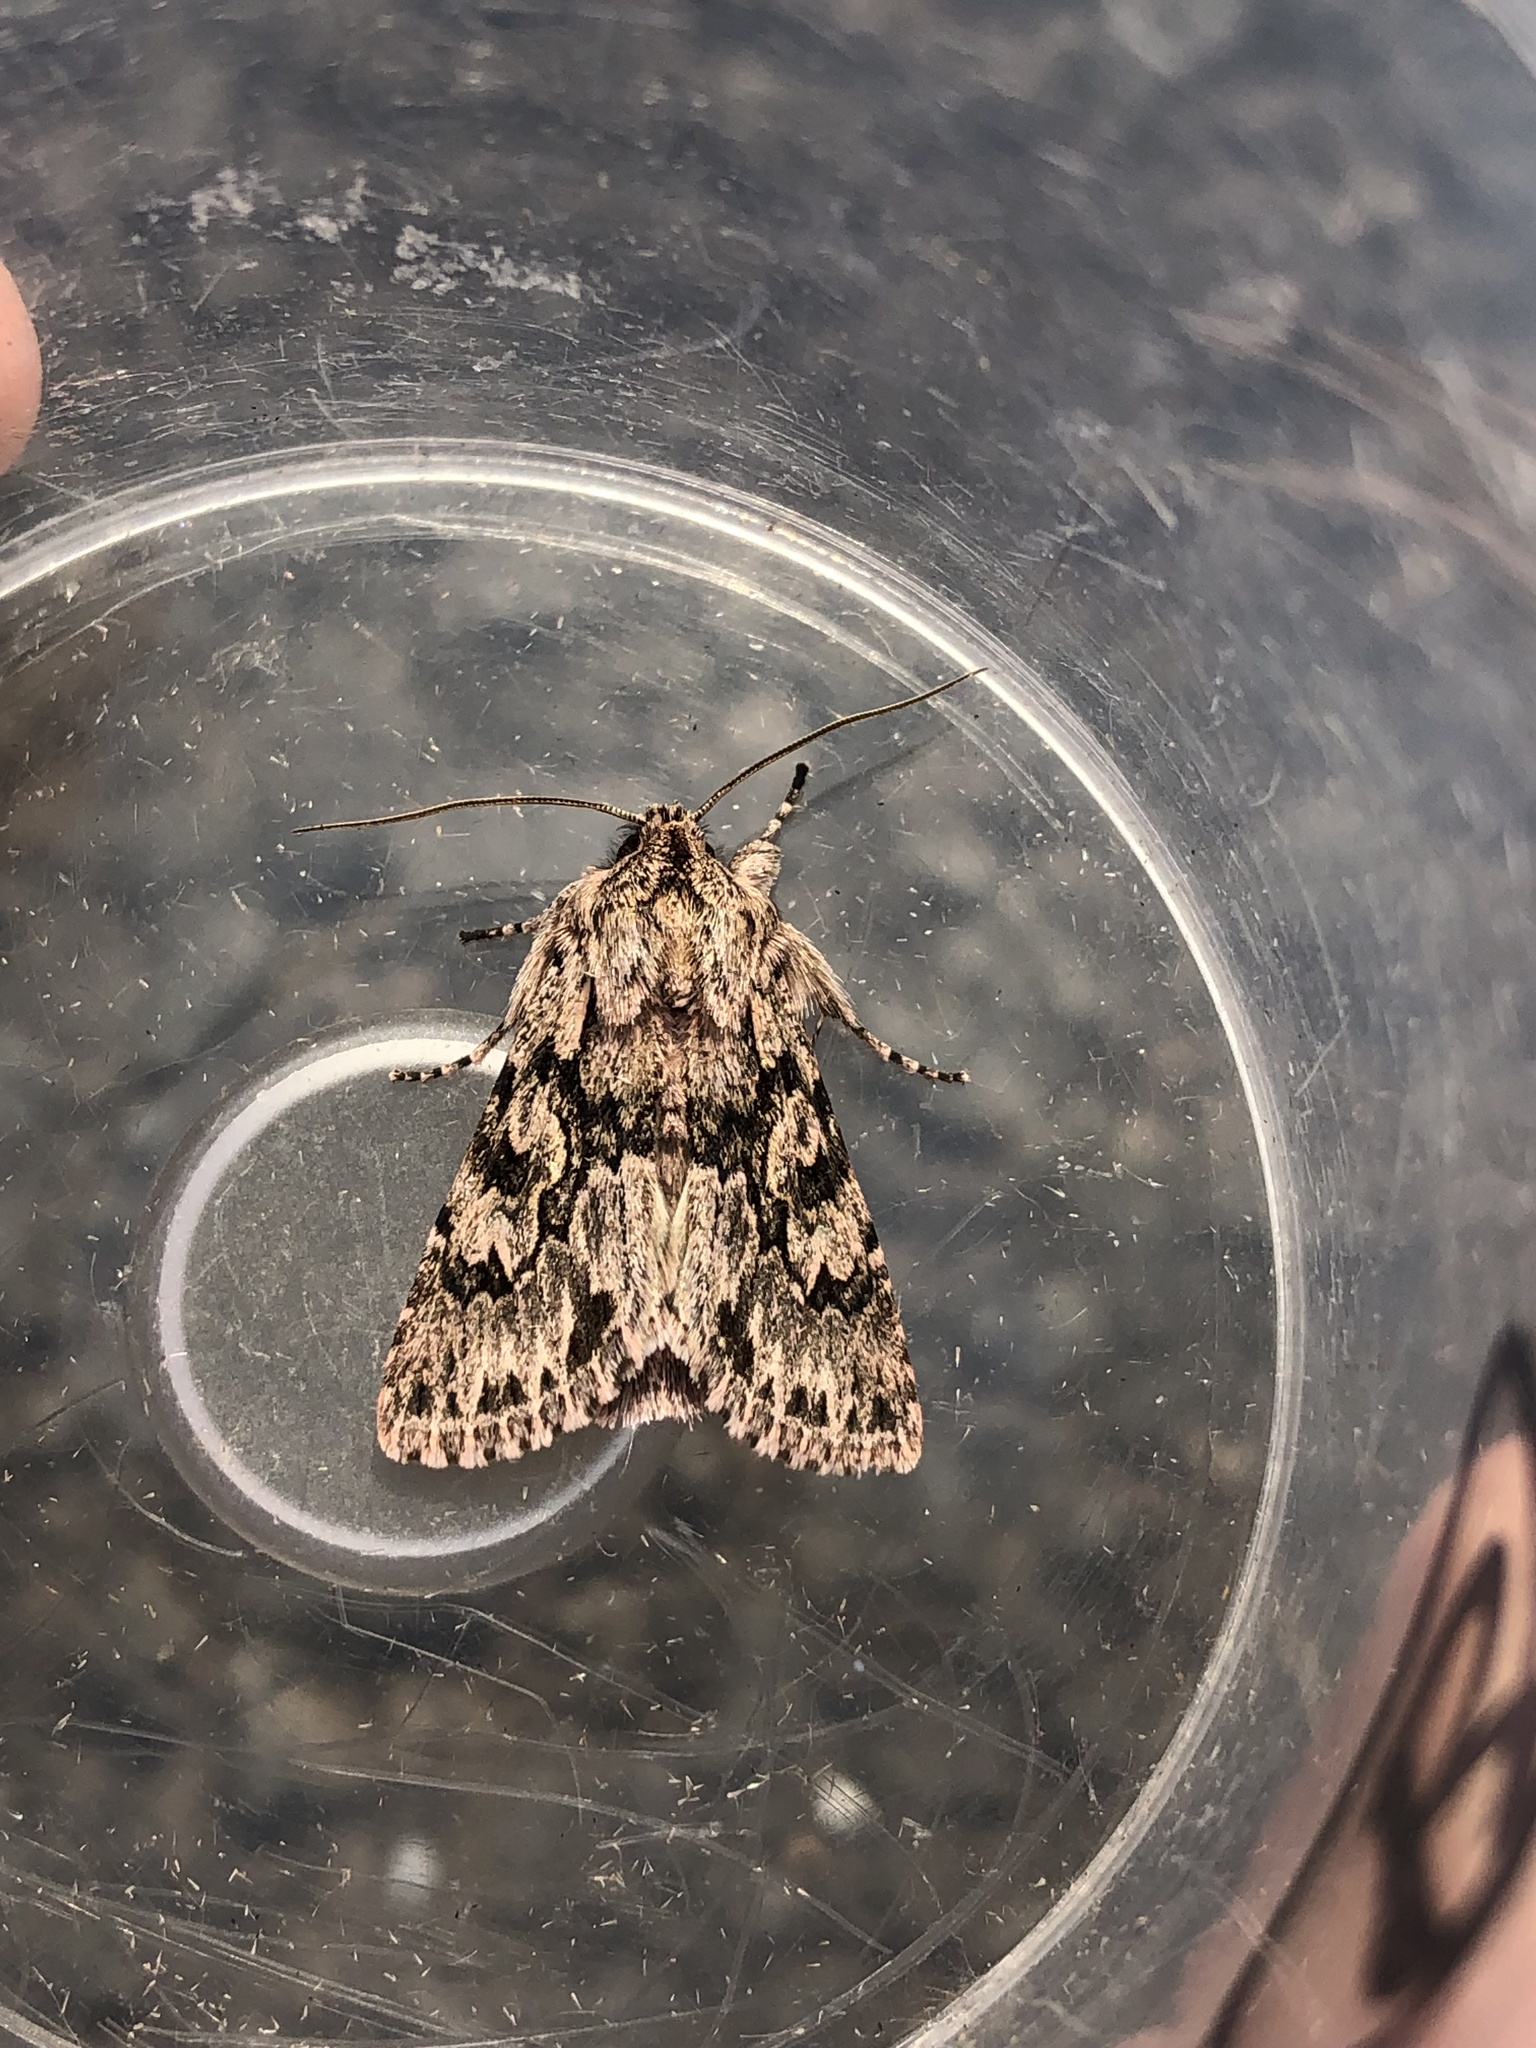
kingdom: Animalia
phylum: Arthropoda
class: Insecta
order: Lepidoptera
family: Noctuidae
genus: Xylocampa
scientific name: Xylocampa areola
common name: Early grey
